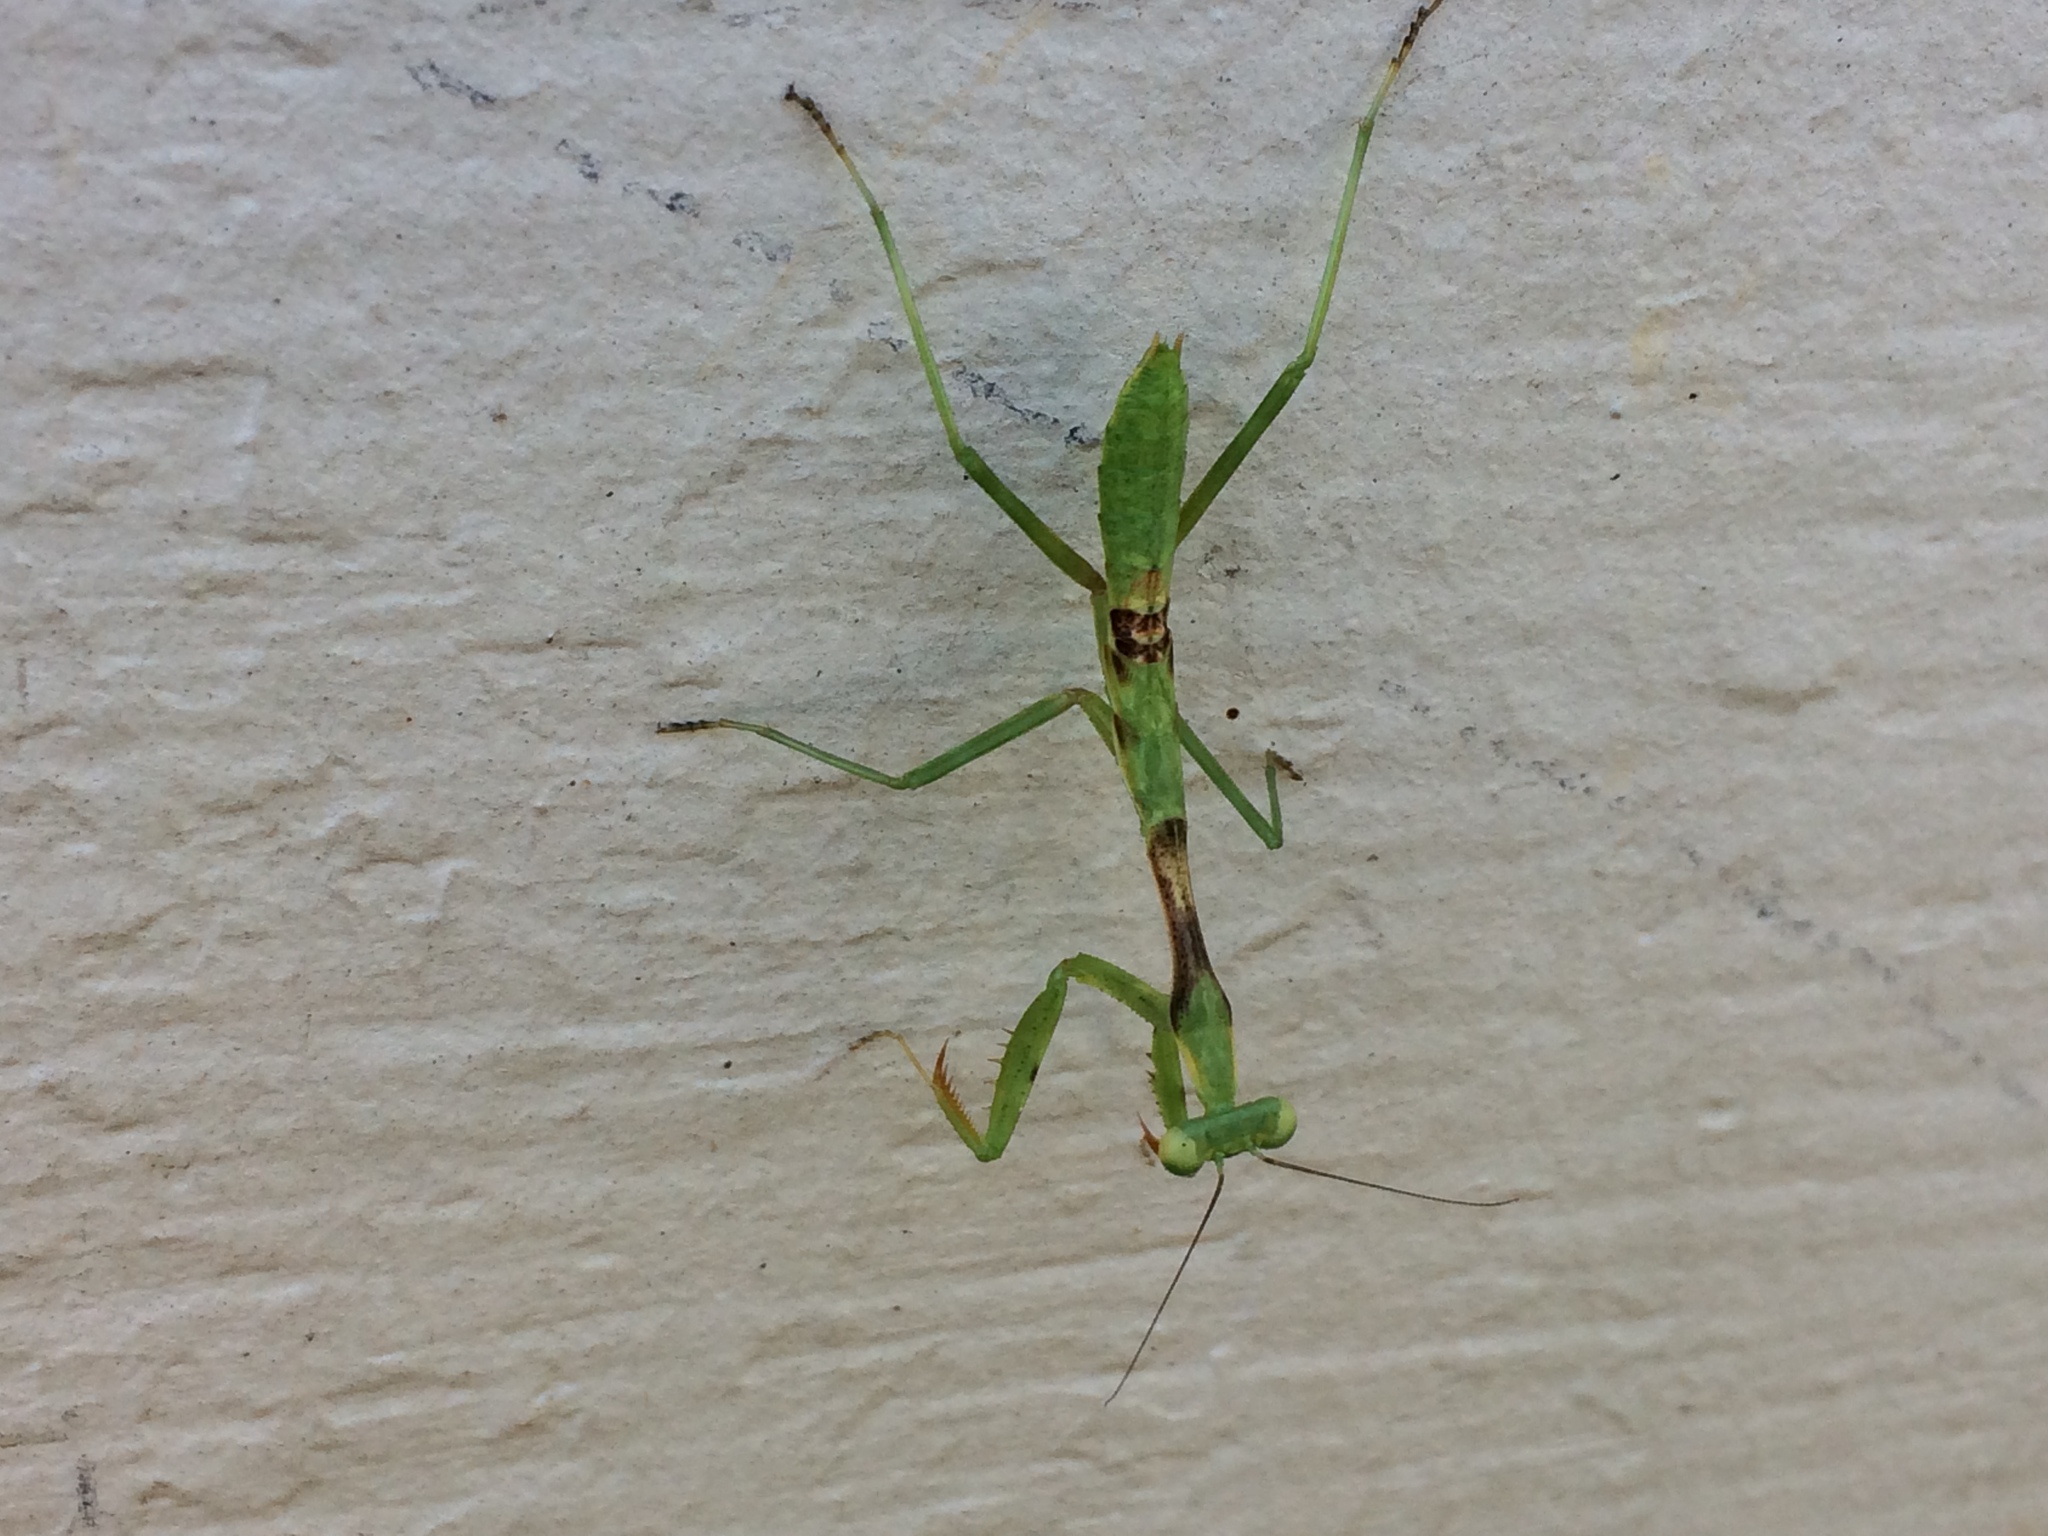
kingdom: Animalia
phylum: Arthropoda
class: Insecta
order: Mantodea
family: Mantidae
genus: Stagmomantis
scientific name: Stagmomantis californica
